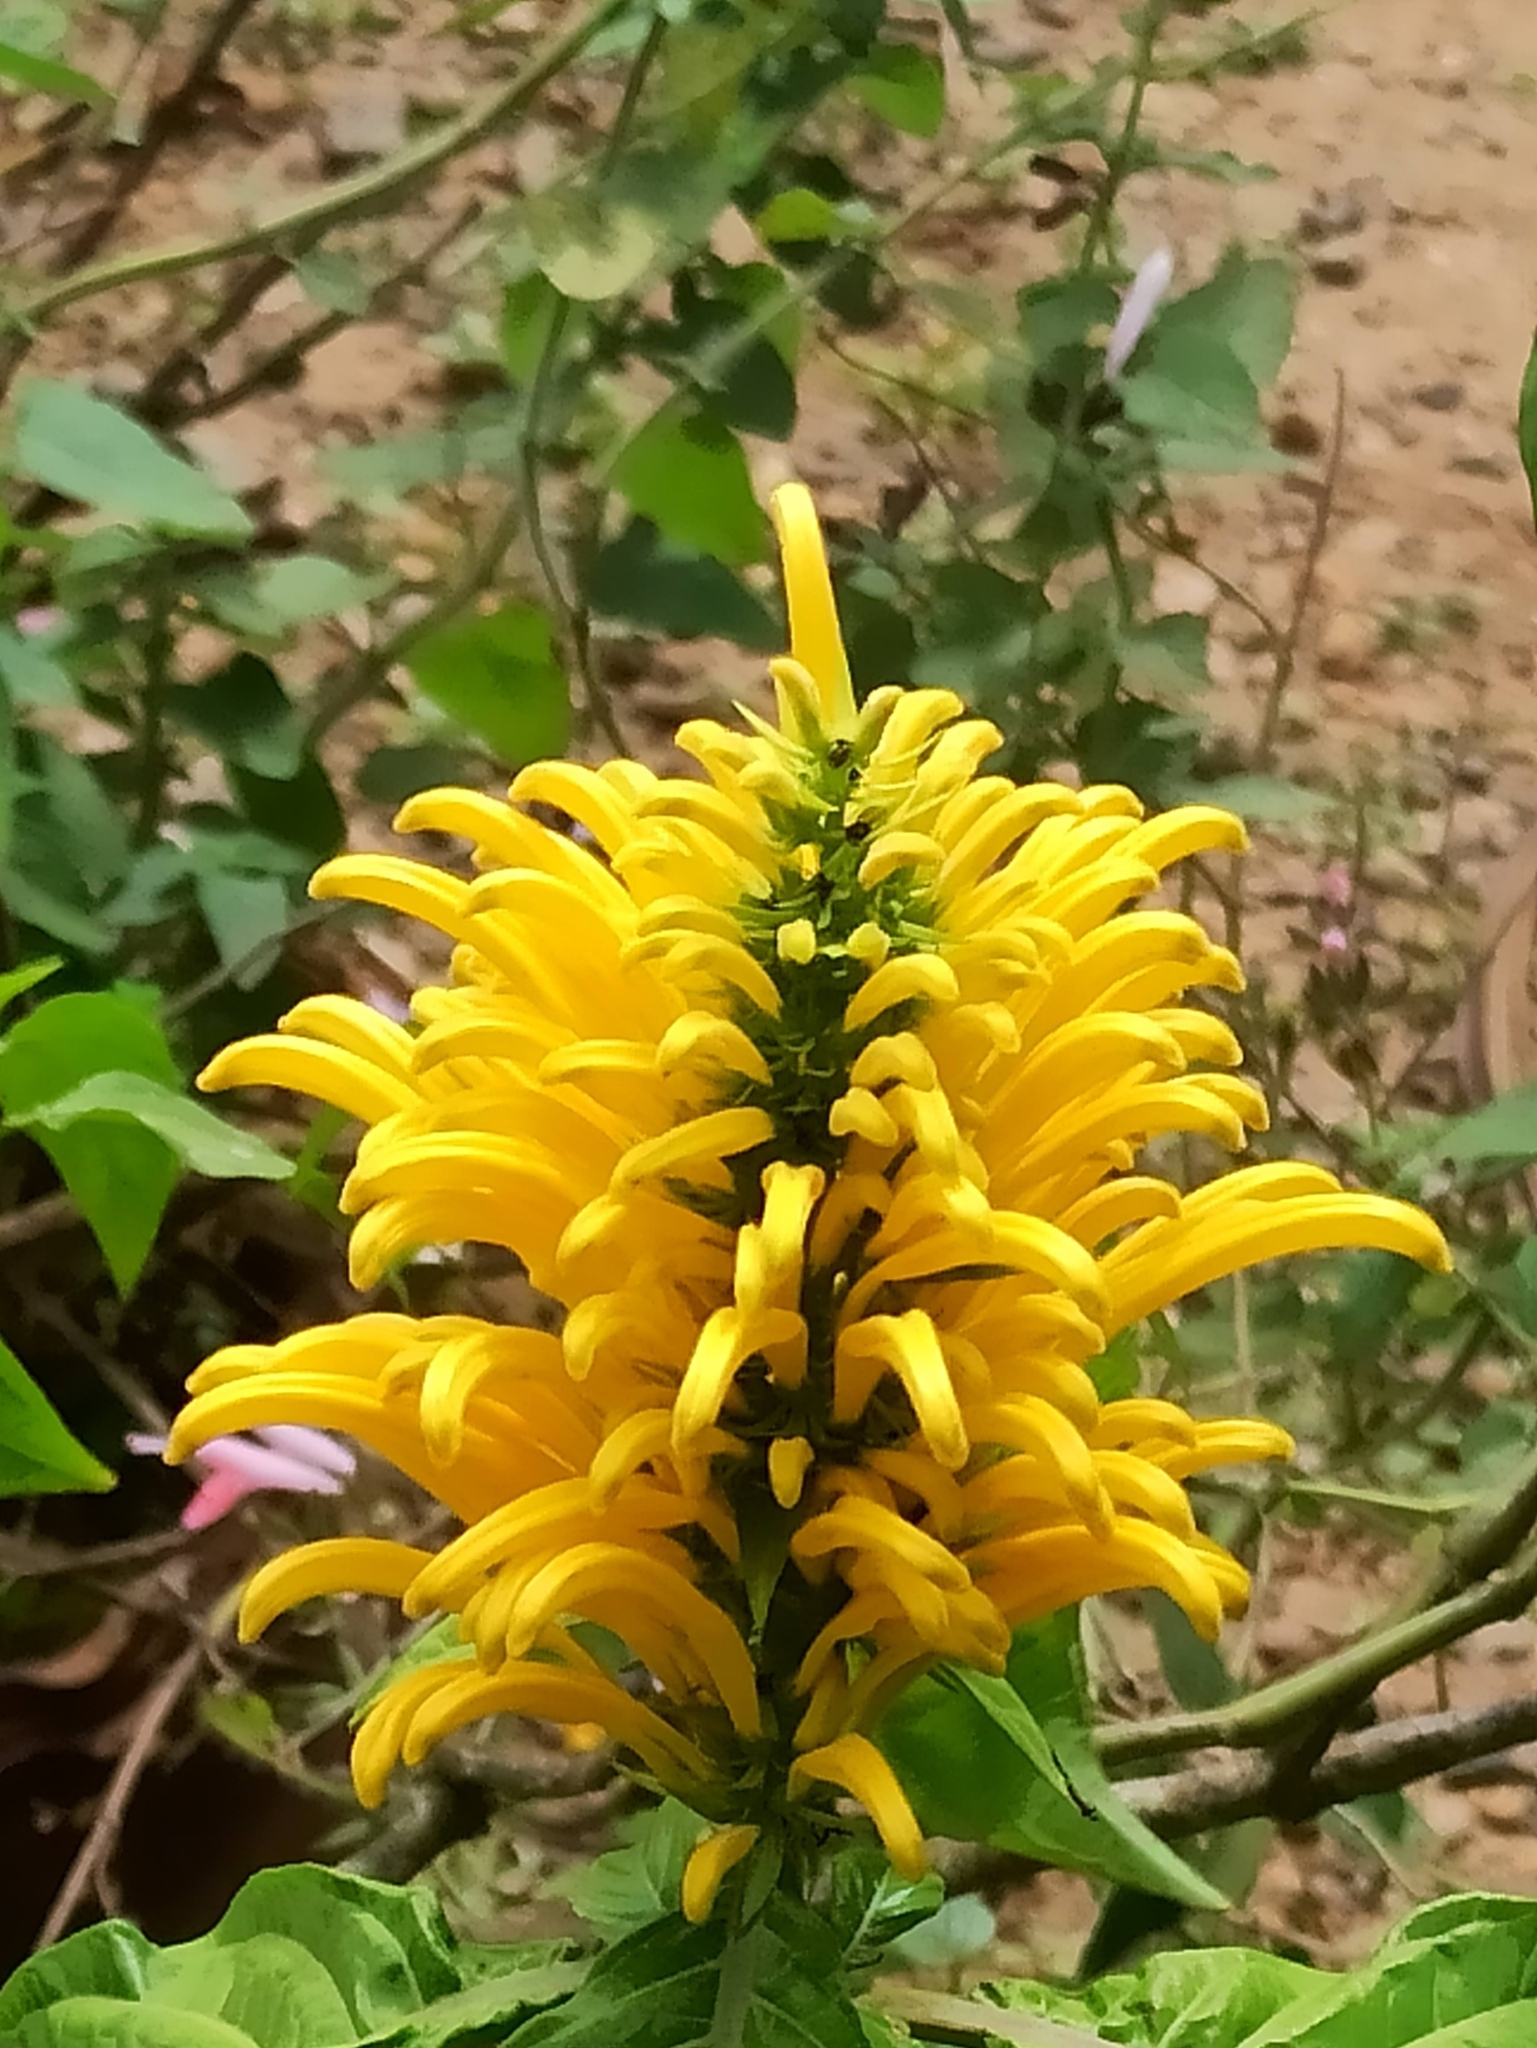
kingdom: Plantae
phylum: Tracheophyta
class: Magnoliopsida
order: Lamiales
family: Acanthaceae
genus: Justicia
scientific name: Justicia aurea
